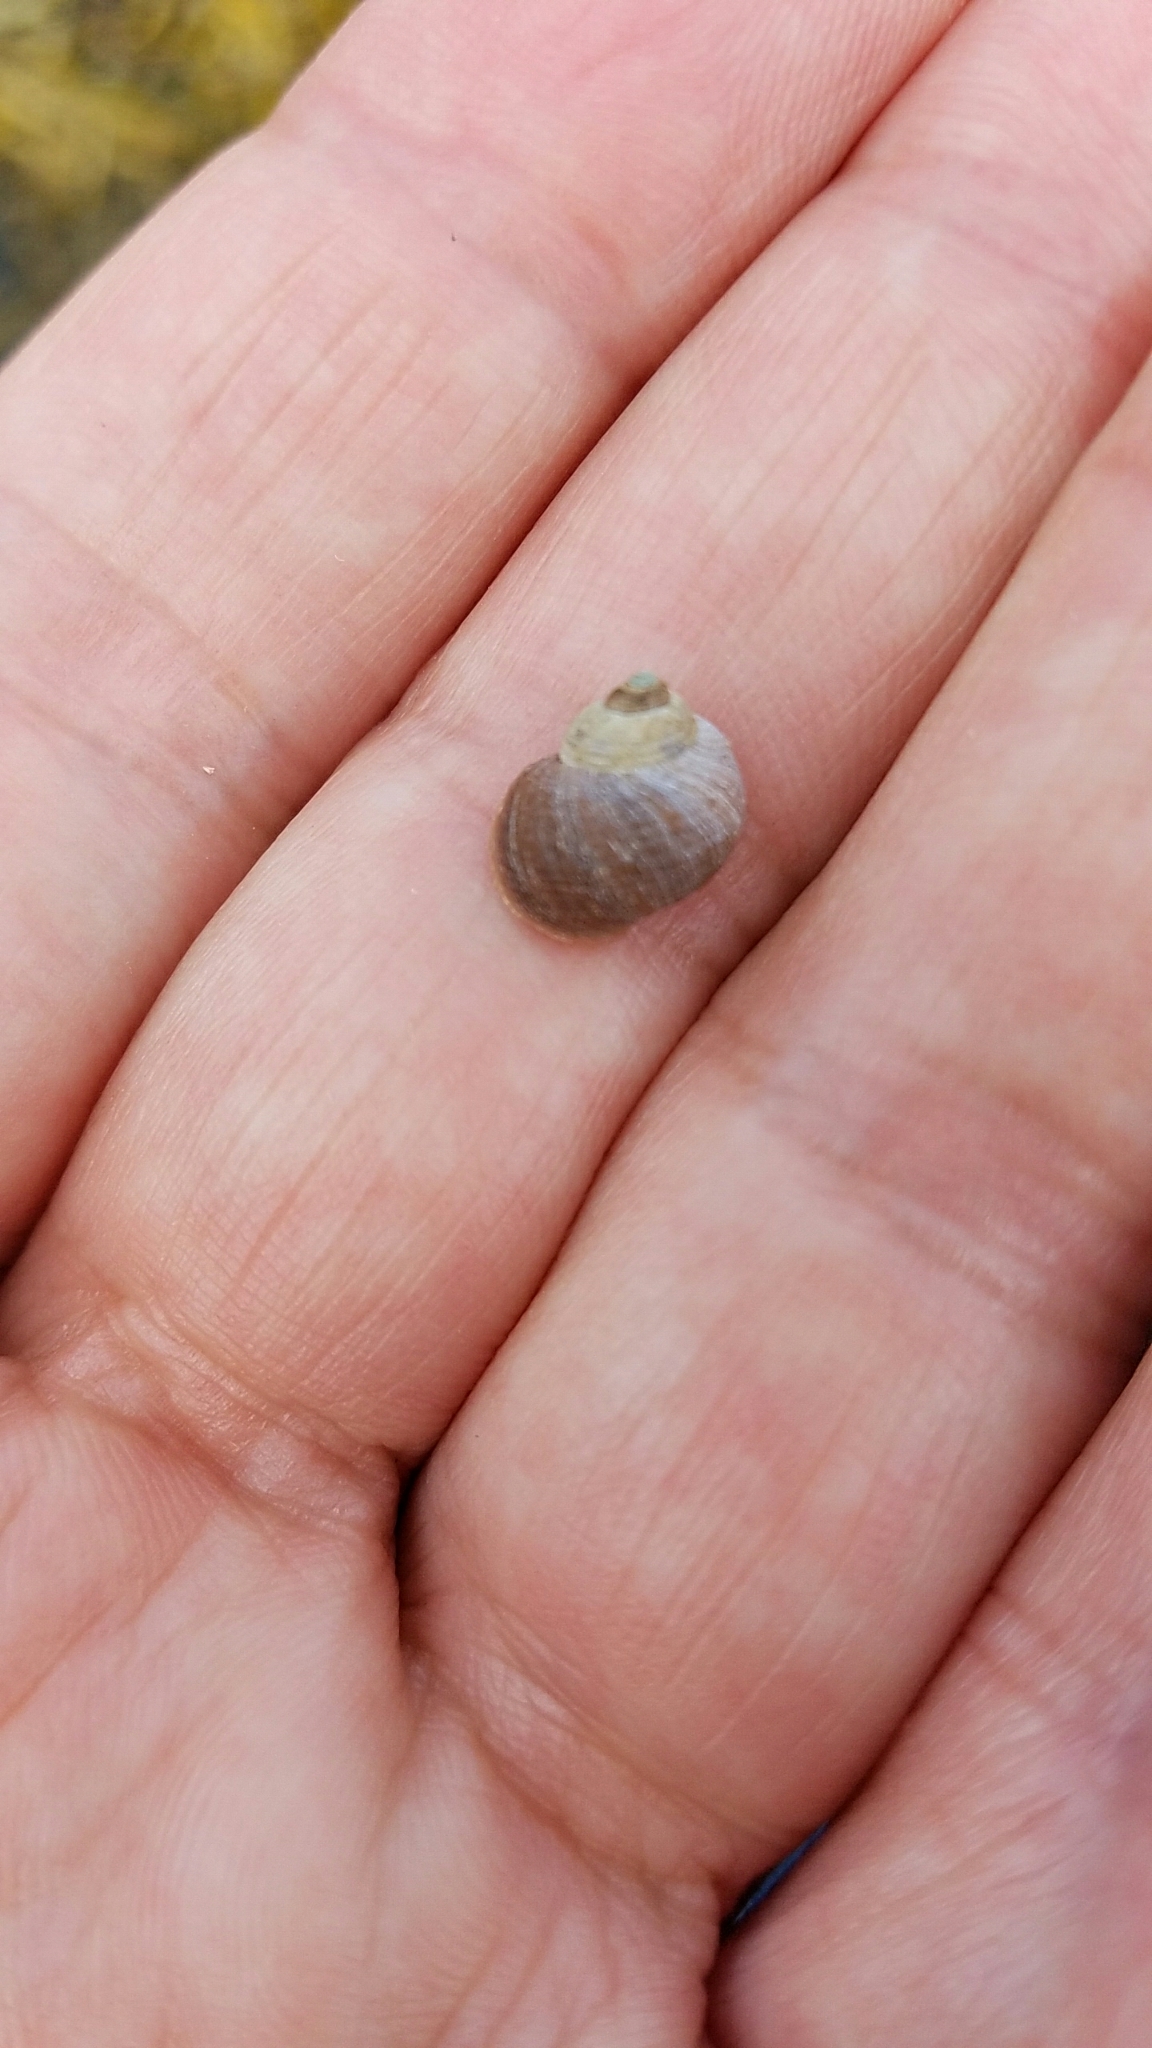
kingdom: Animalia
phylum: Mollusca
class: Gastropoda
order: Littorinimorpha
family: Littorinidae
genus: Littorina
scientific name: Littorina saxatilis
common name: Black-lined periwinkle
